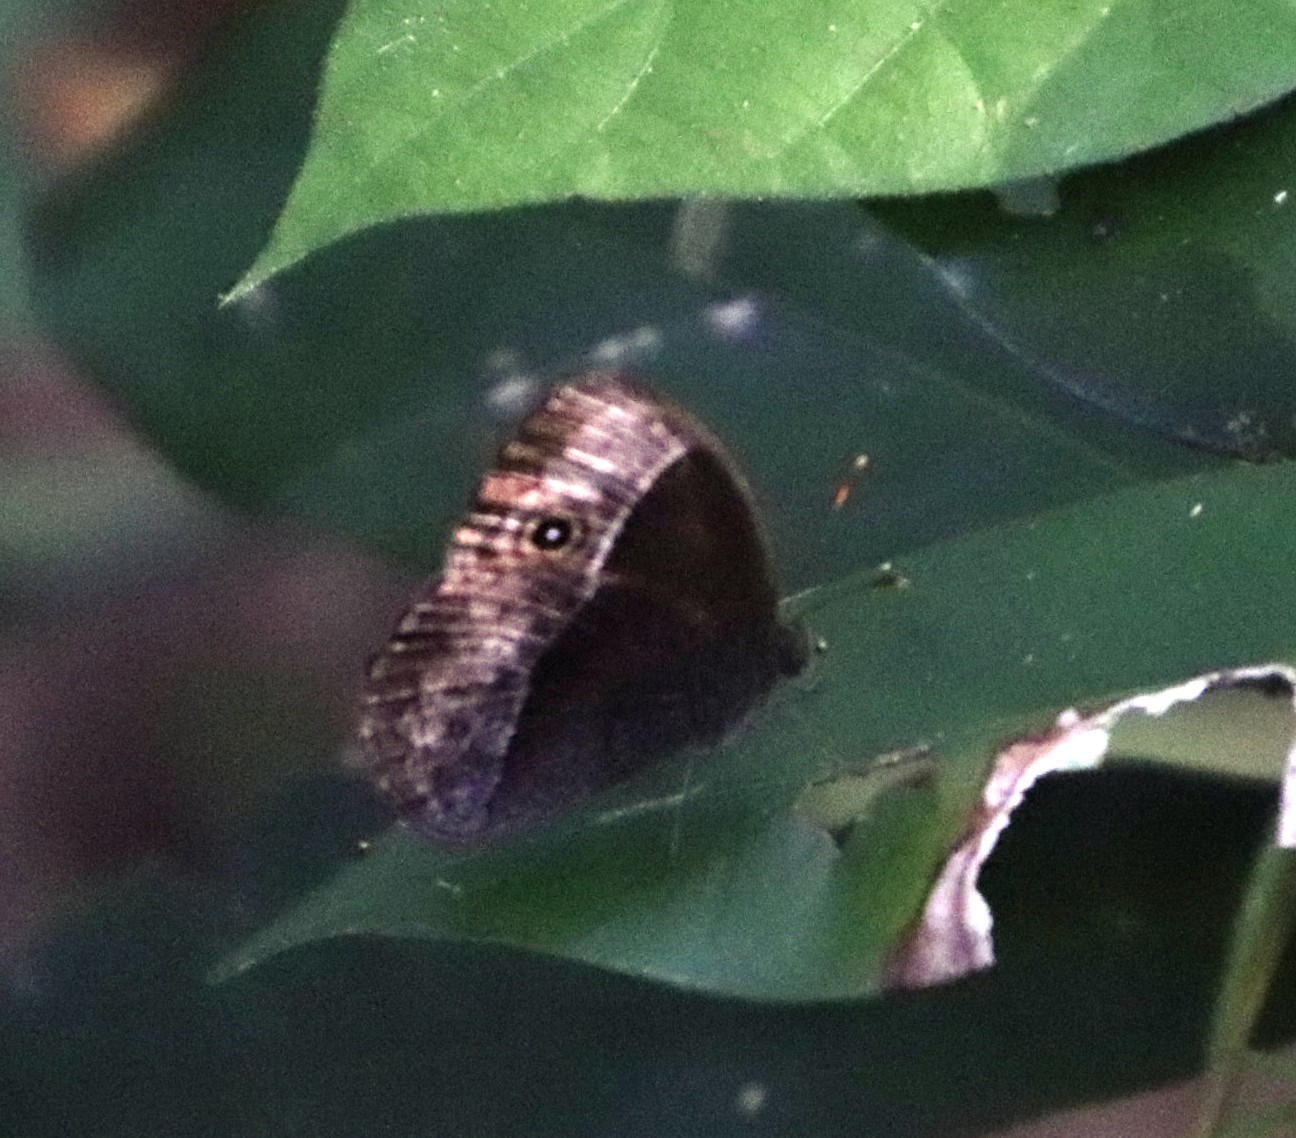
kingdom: Animalia
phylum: Arthropoda
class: Insecta
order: Lepidoptera
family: Nymphalidae
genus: Mycalesis
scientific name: Mycalesis rhacotis
